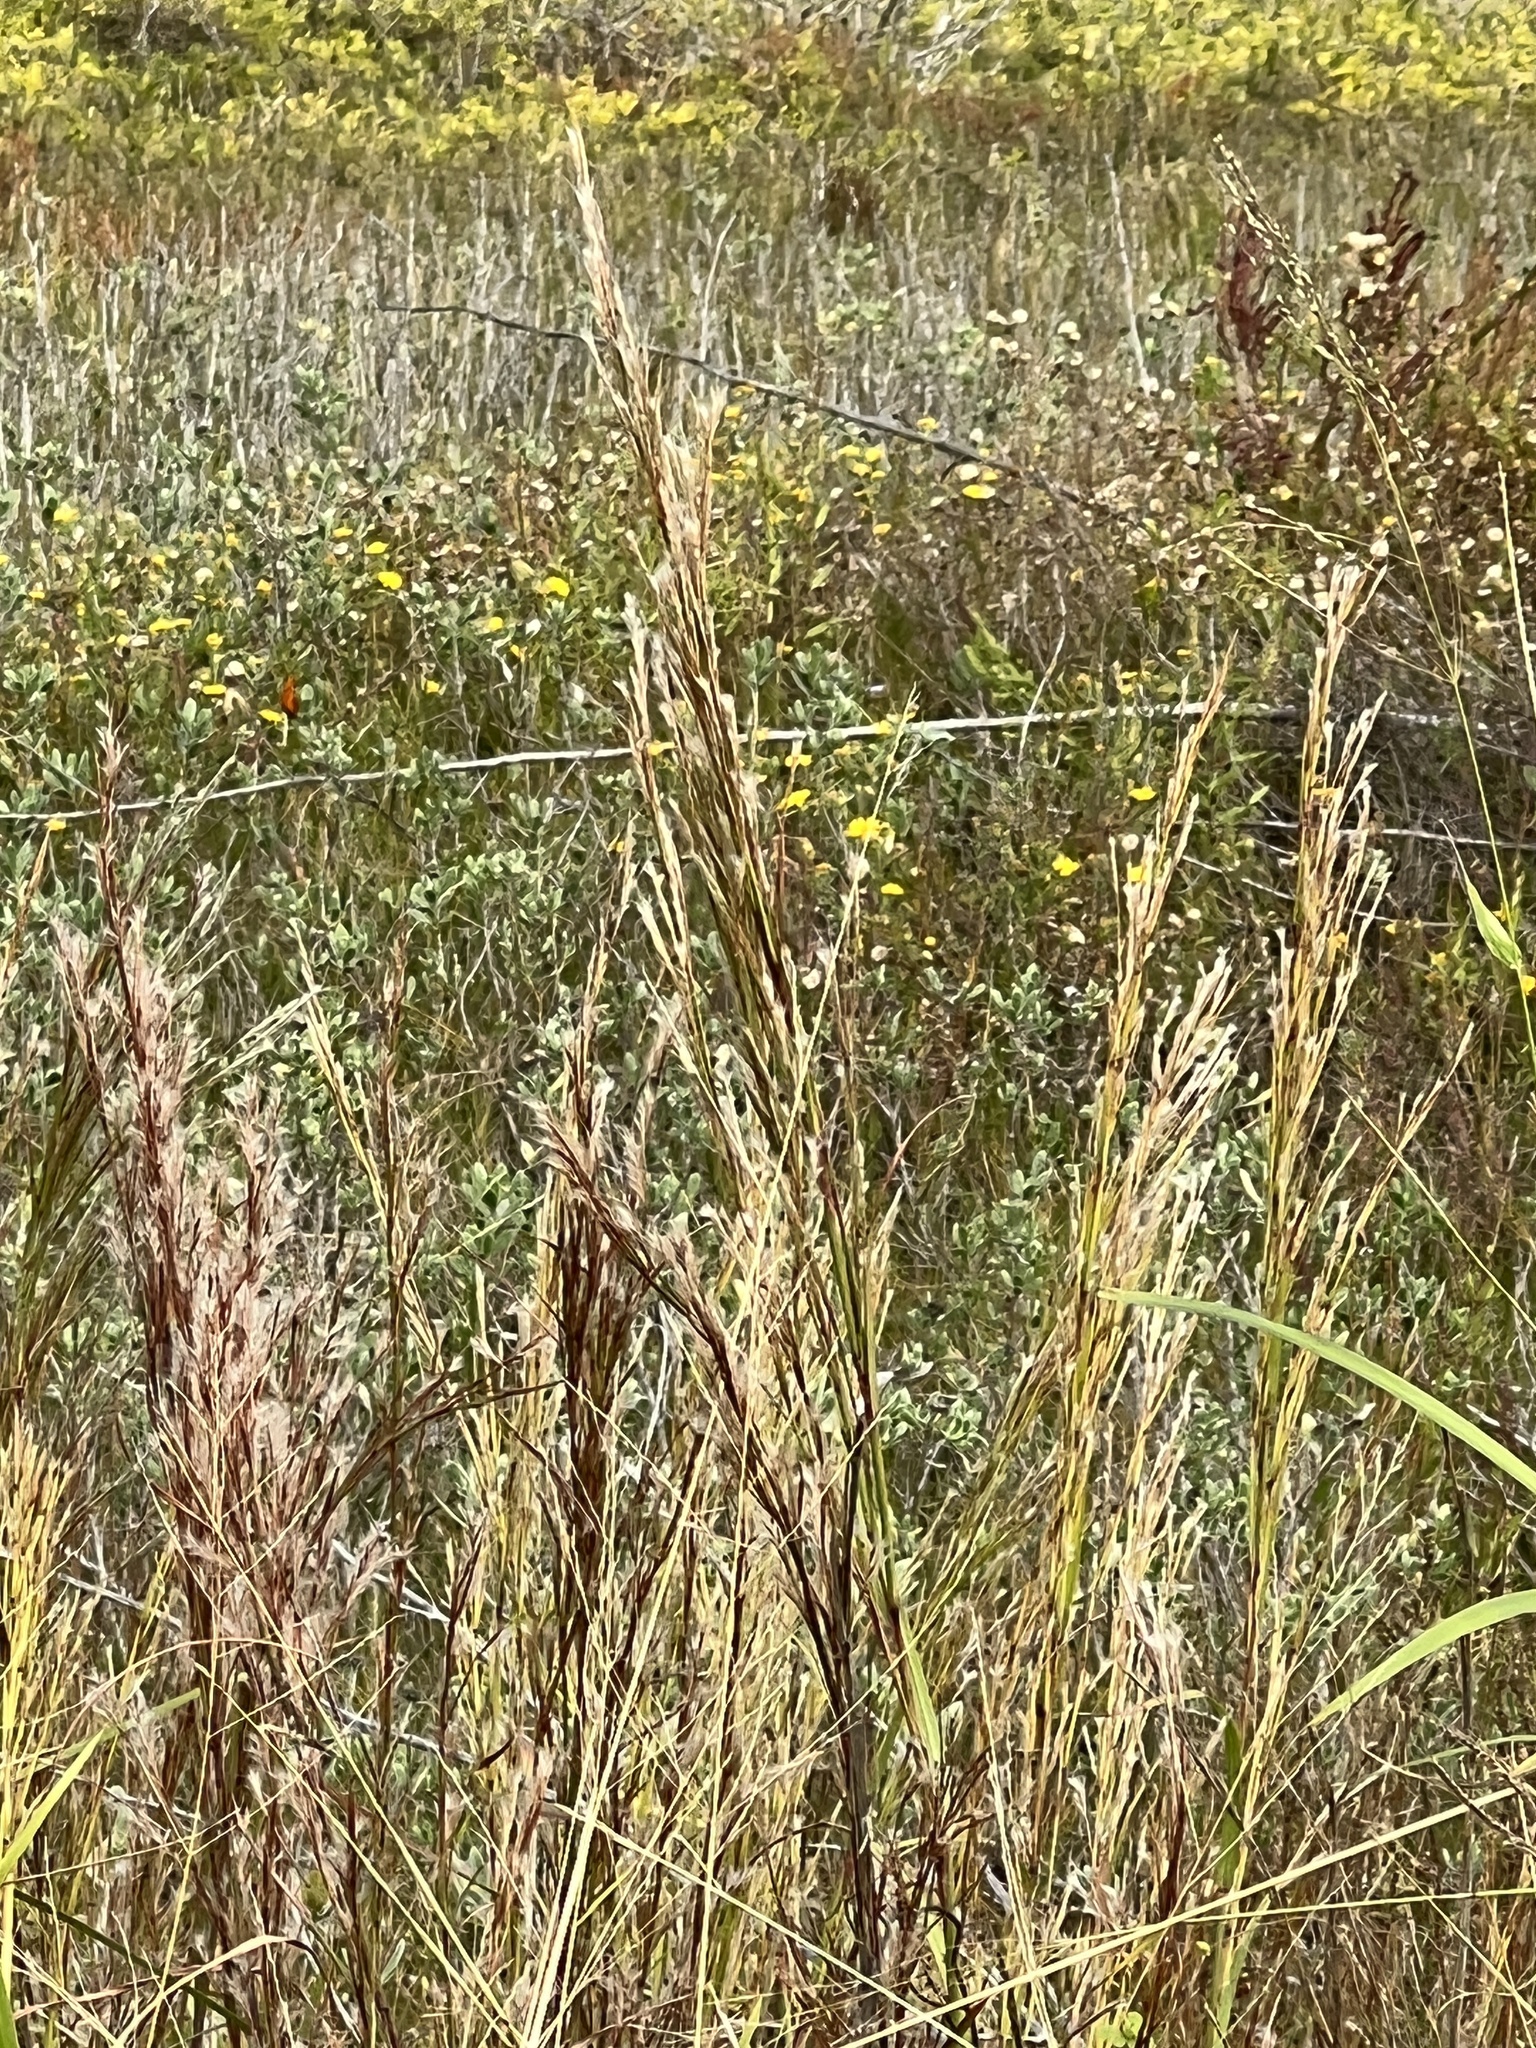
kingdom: Plantae
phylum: Tracheophyta
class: Liliopsida
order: Poales
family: Poaceae
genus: Andropogon
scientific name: Andropogon tenuispatheus
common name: Bushy bluestem
